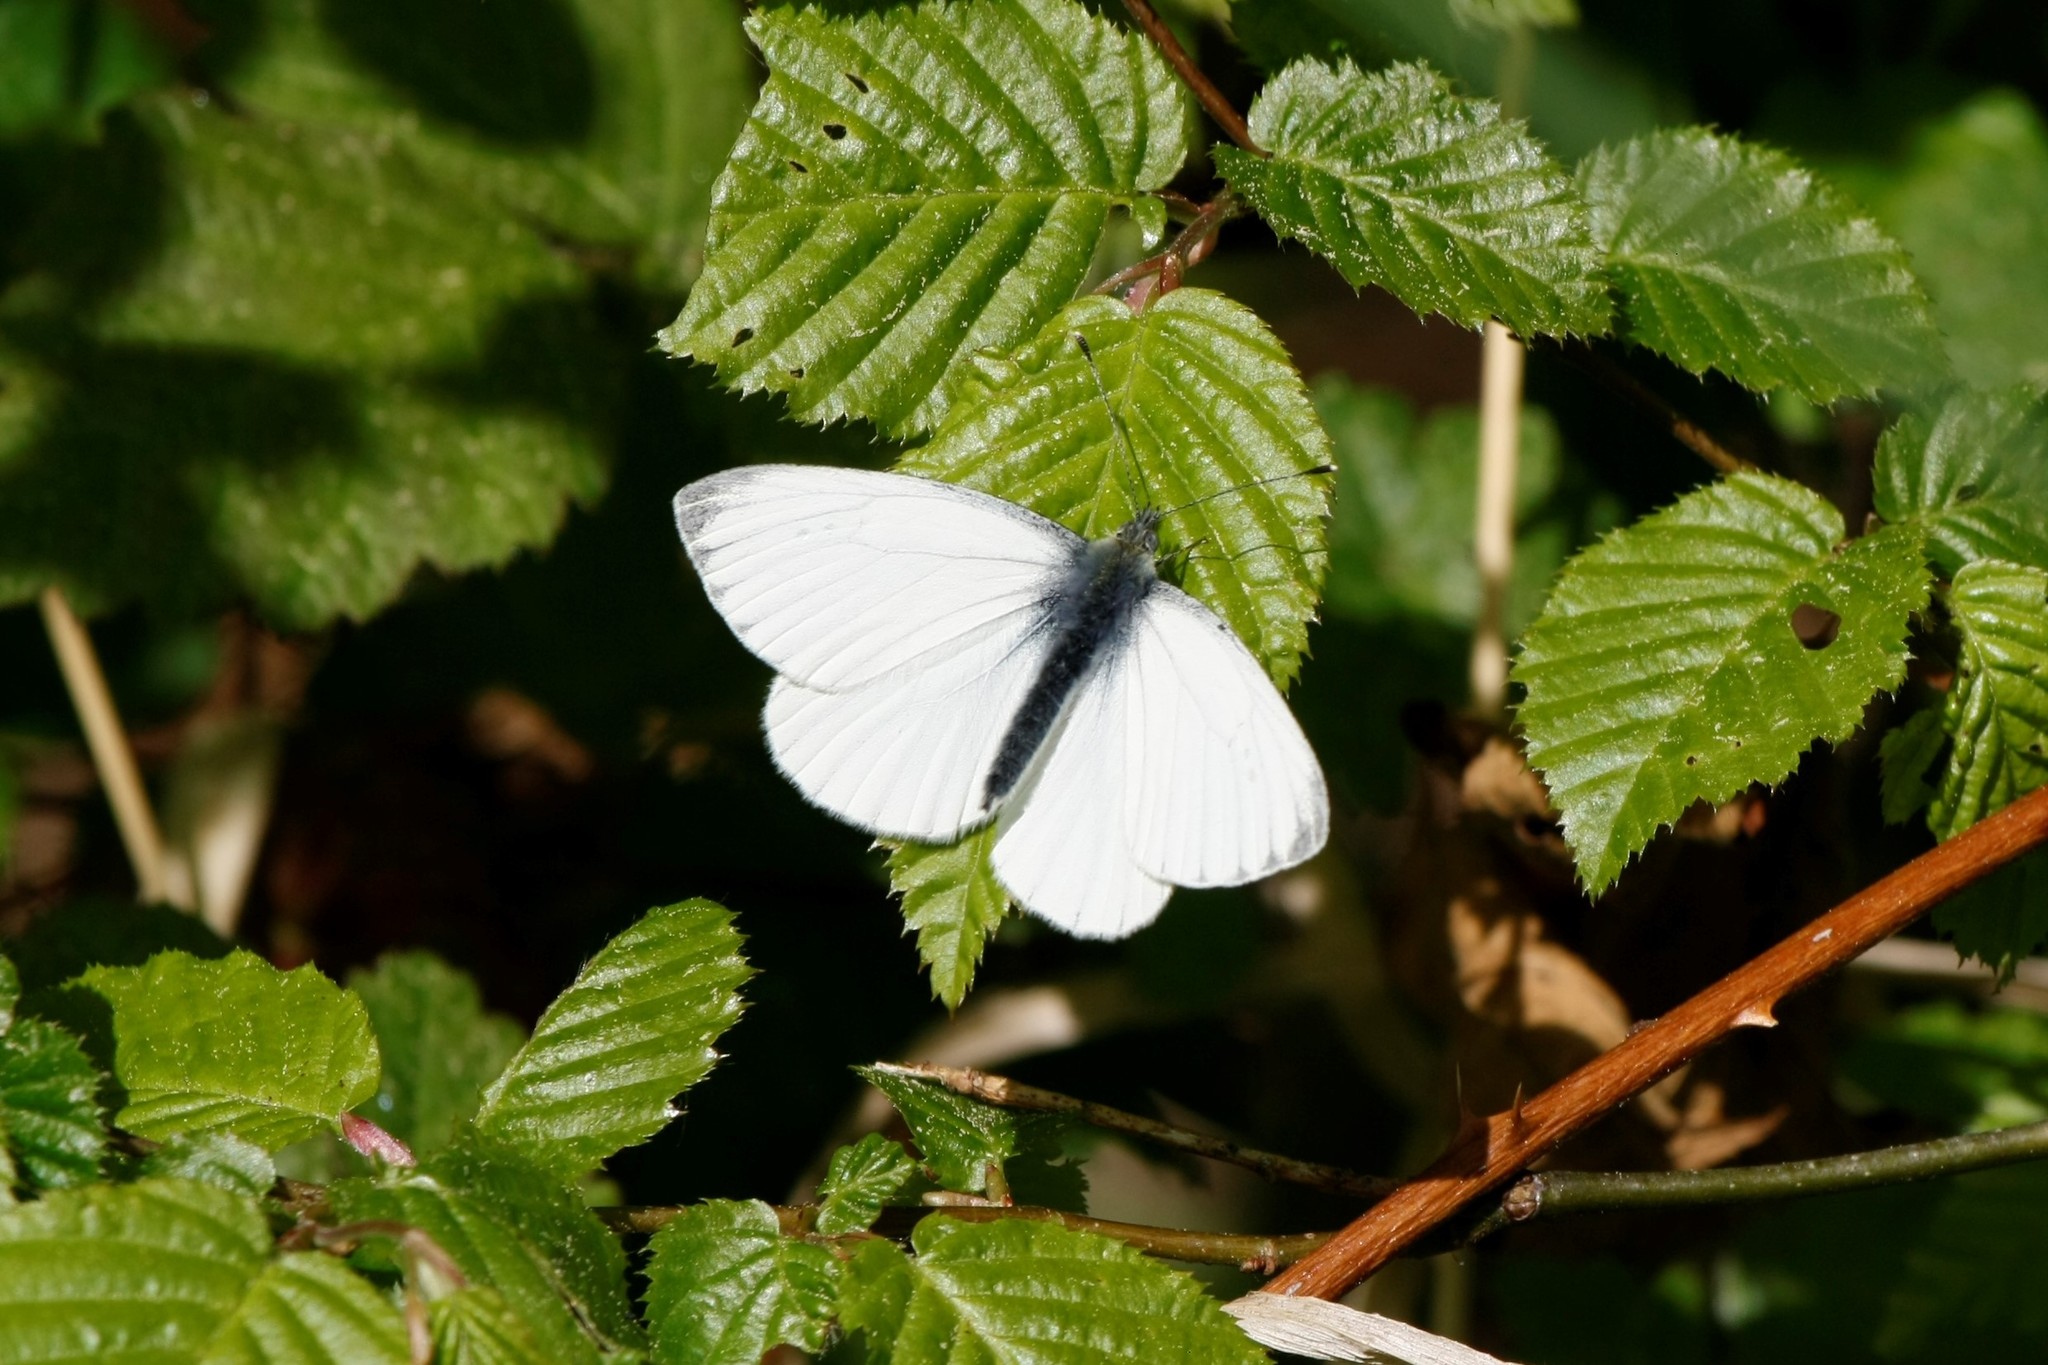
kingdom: Animalia
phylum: Arthropoda
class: Insecta
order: Lepidoptera
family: Pieridae
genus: Pieris
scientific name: Pieris napi
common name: Green-veined white
